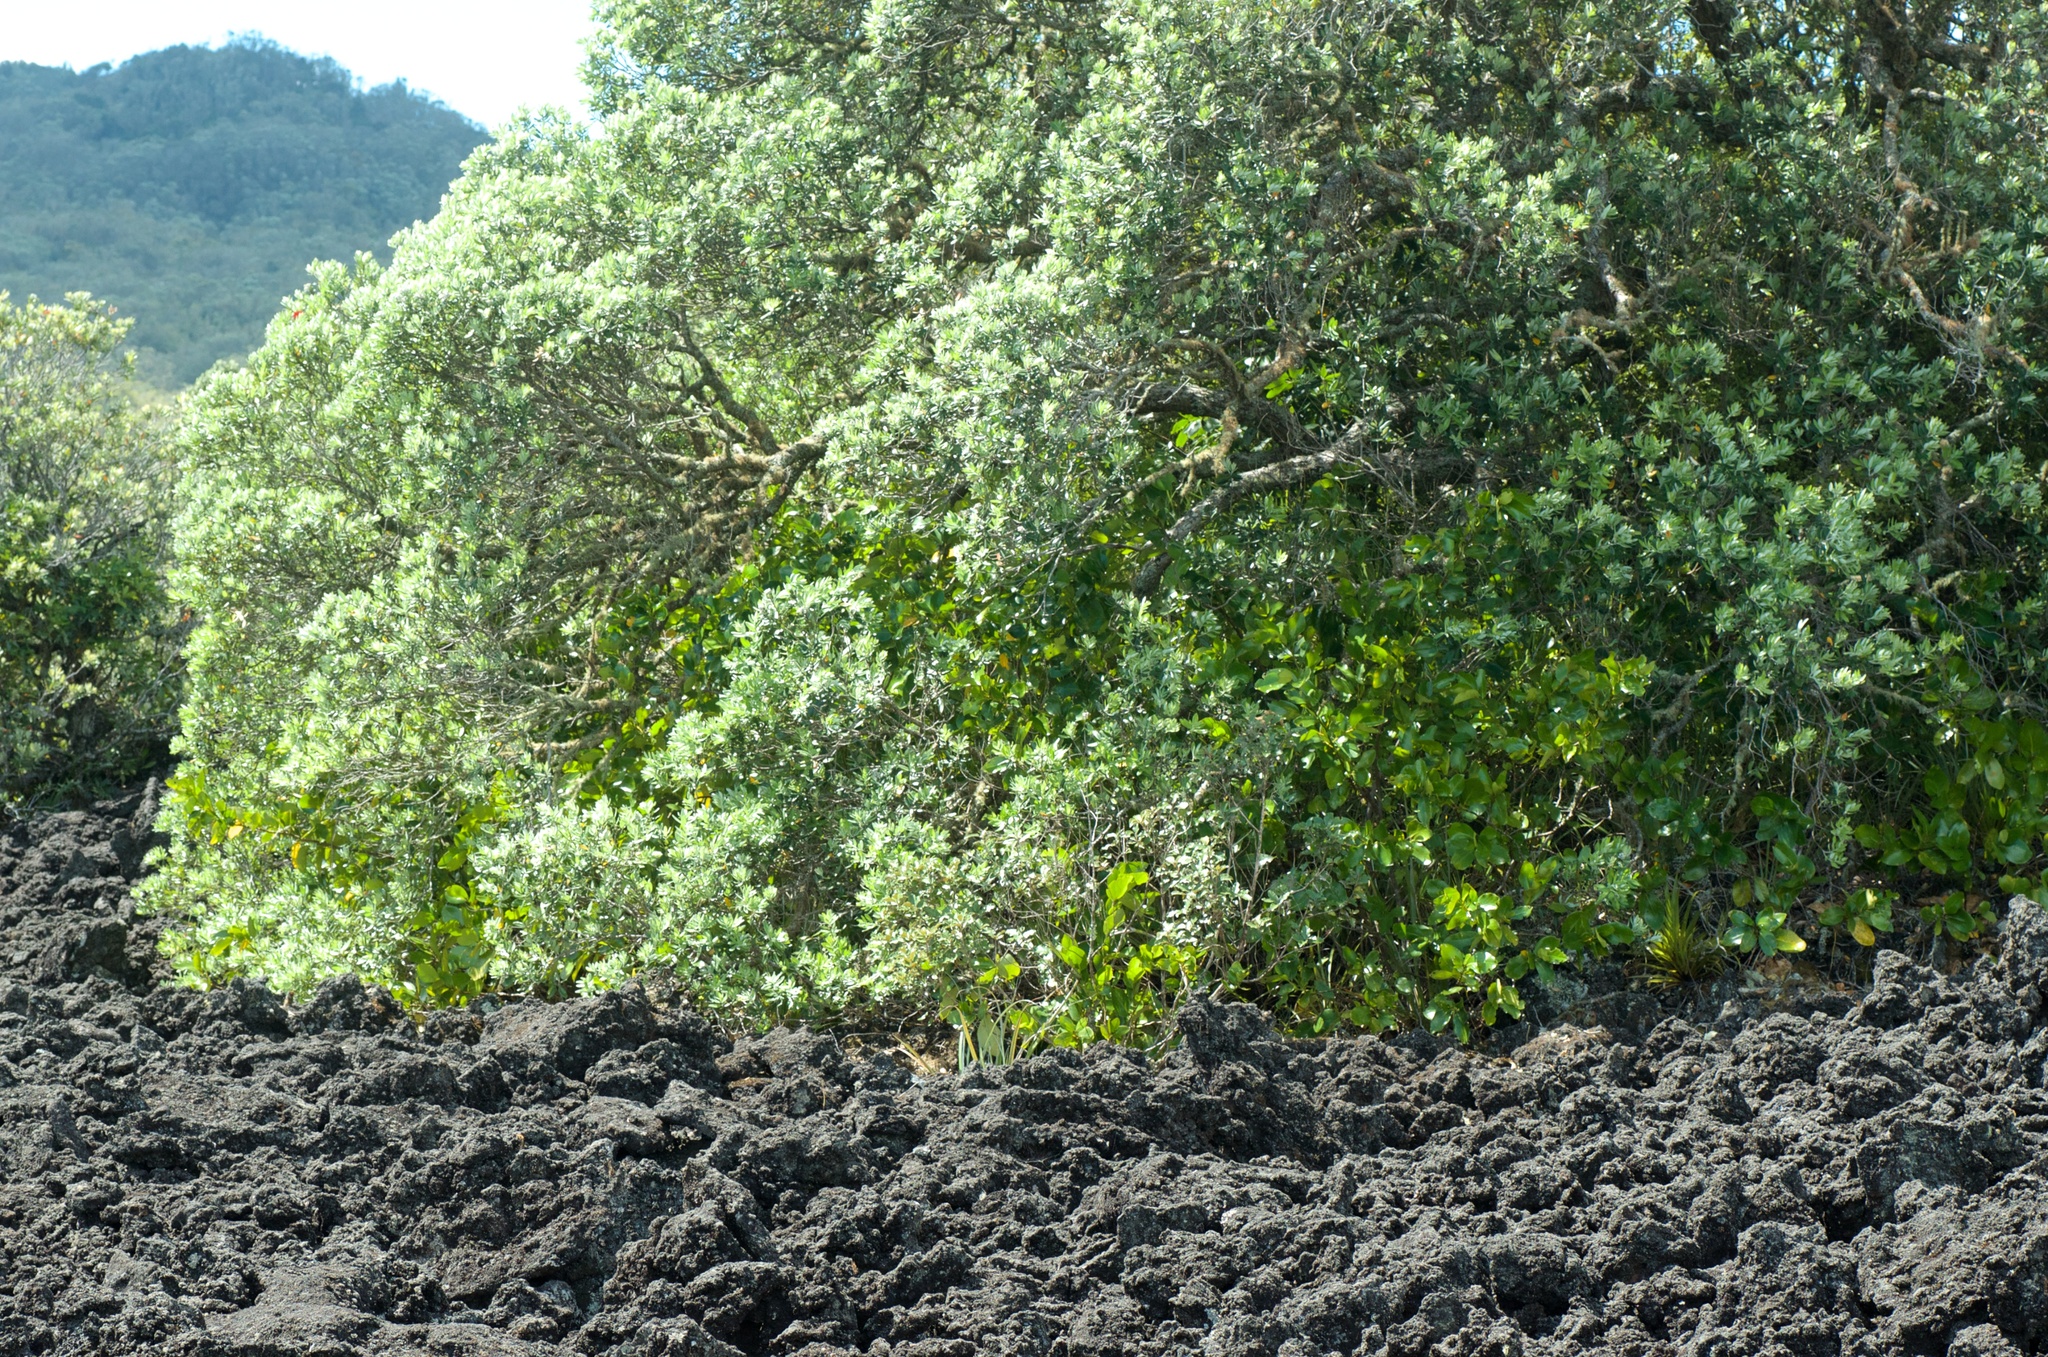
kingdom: Plantae
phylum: Tracheophyta
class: Magnoliopsida
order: Myrtales
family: Myrtaceae
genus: Metrosideros
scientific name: Metrosideros excelsa
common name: New zealand christmastree
